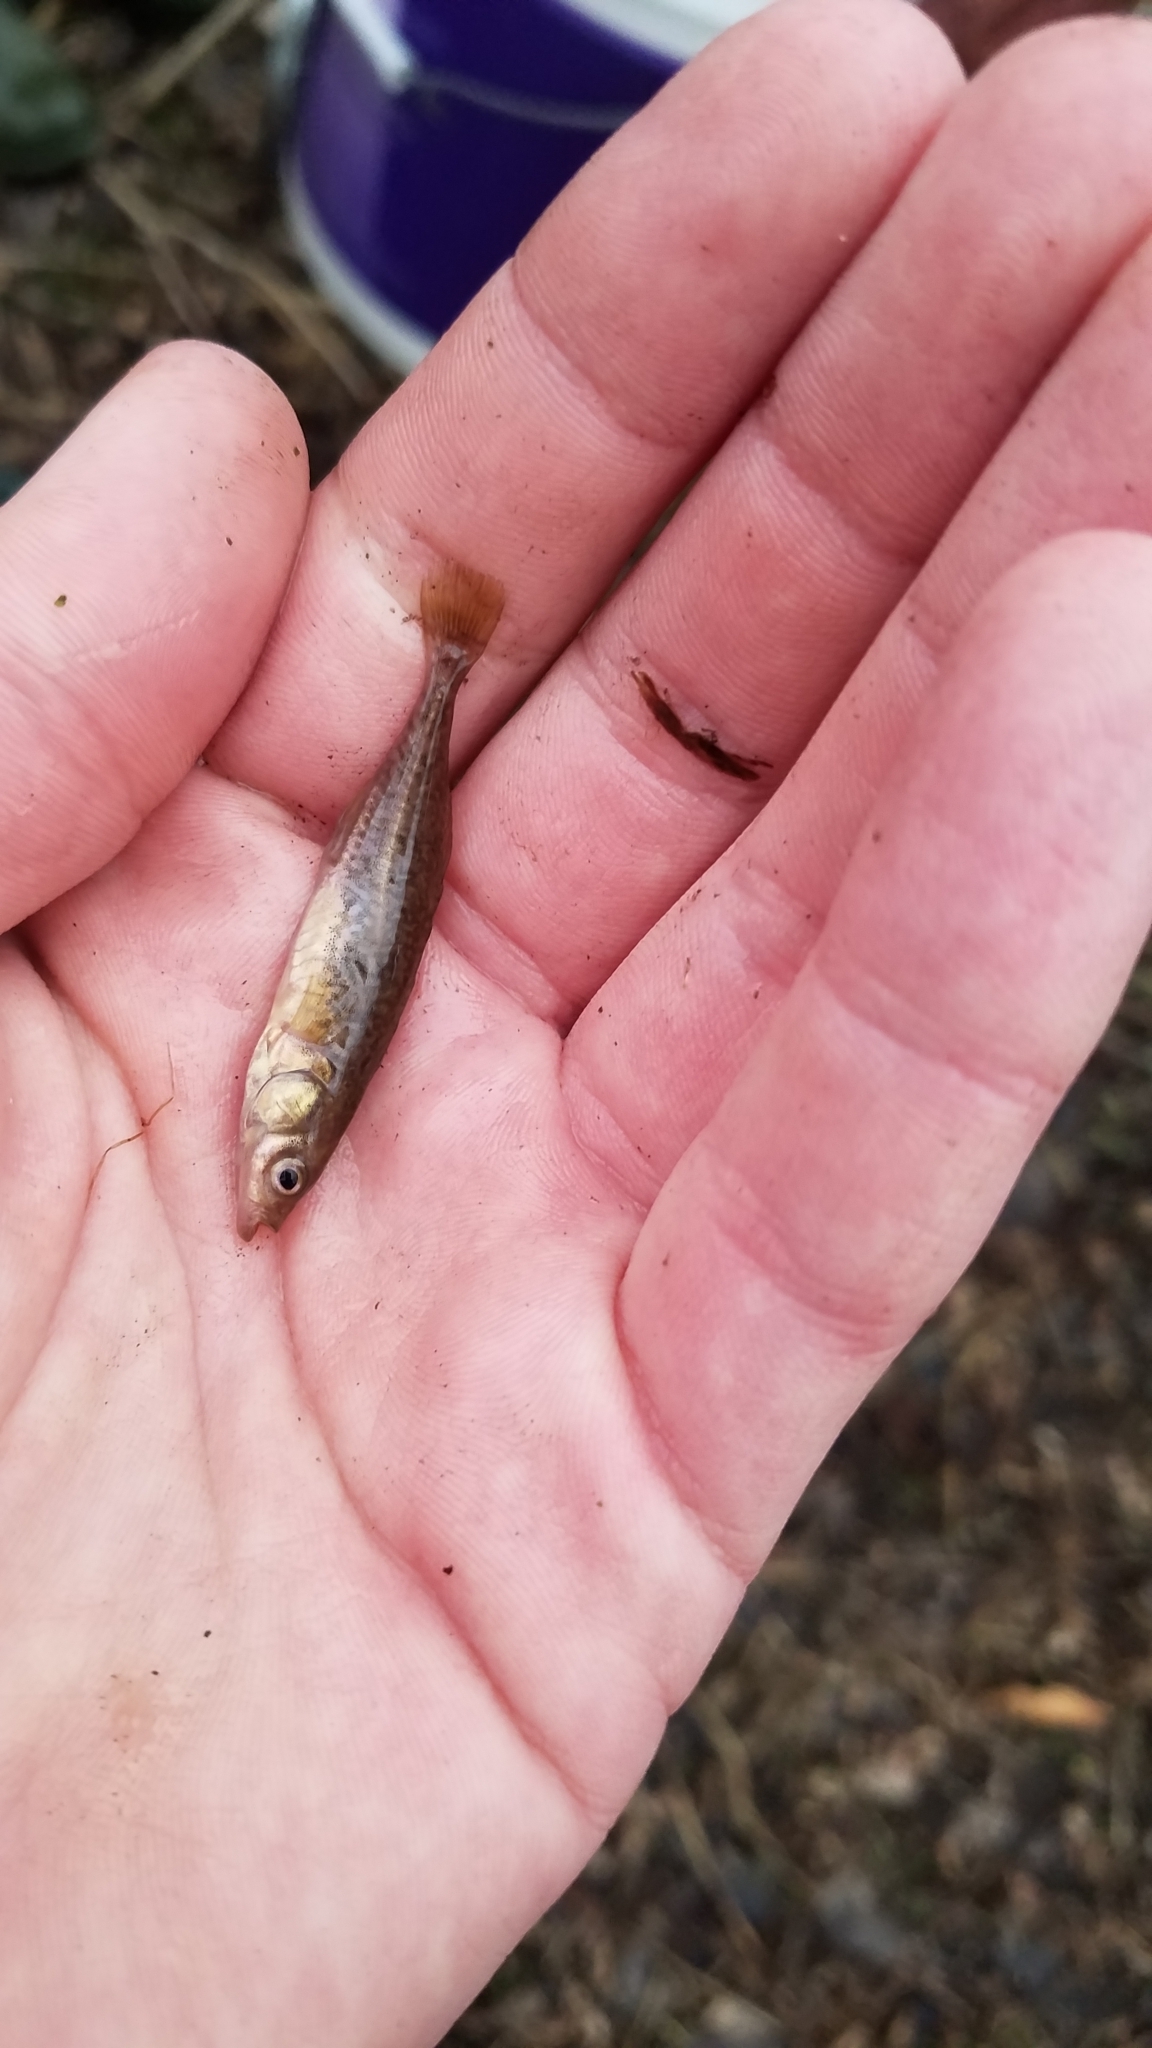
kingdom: Animalia
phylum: Chordata
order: Gasterosteiformes
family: Gasterosteidae
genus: Culaea
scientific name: Culaea inconstans
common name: Brook stickleback
